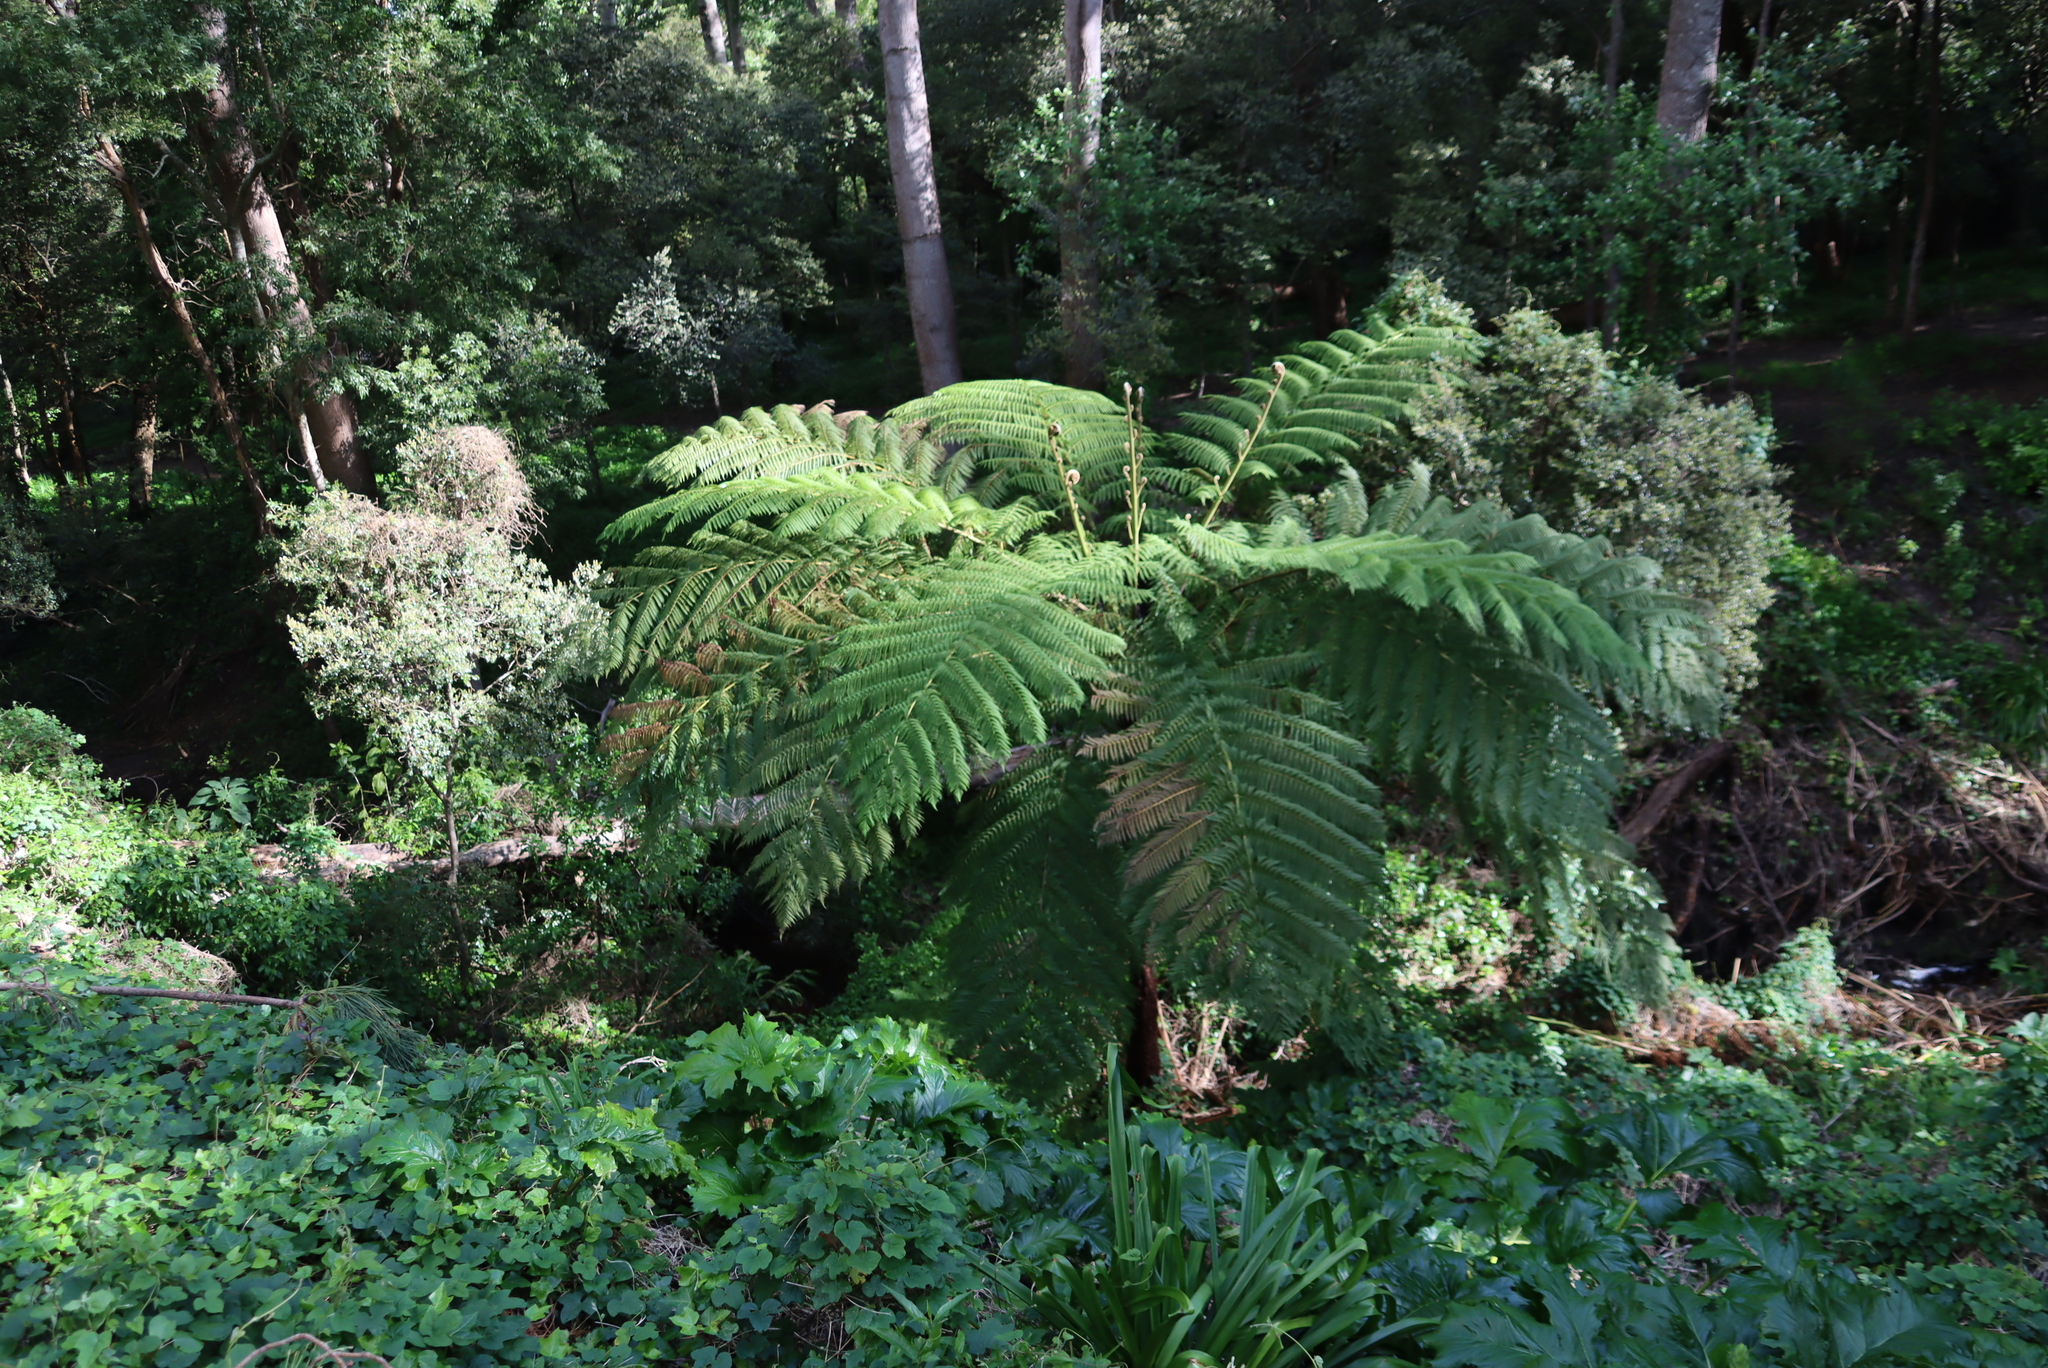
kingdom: Plantae
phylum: Tracheophyta
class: Polypodiopsida
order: Cyatheales
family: Cyatheaceae
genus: Sphaeropteris
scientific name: Sphaeropteris cooperi
